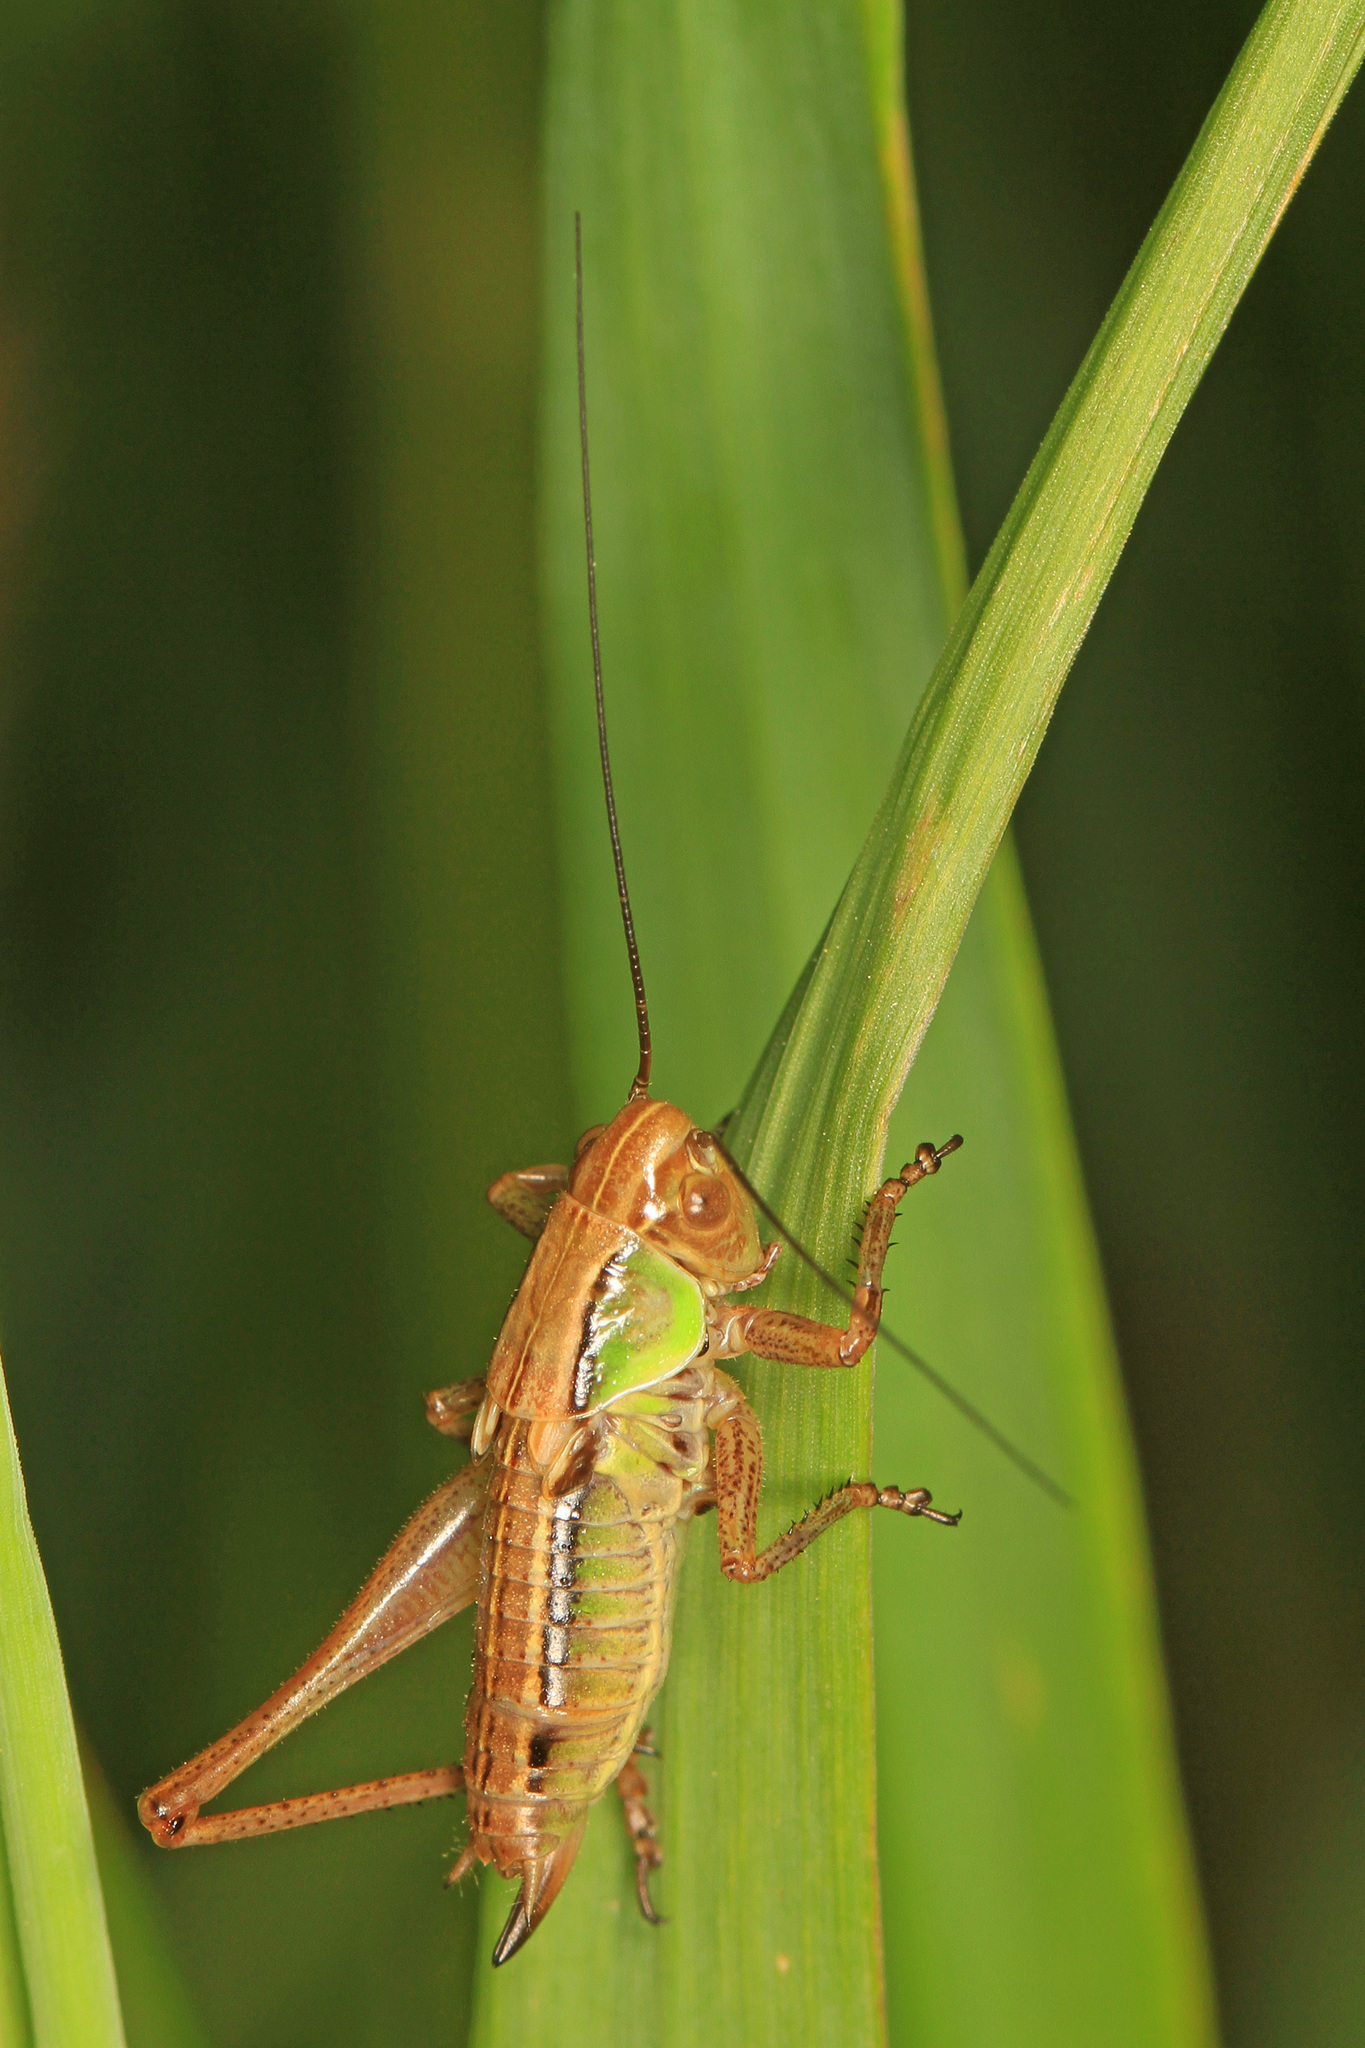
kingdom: Animalia
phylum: Arthropoda
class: Insecta
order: Orthoptera
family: Tettigoniidae
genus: Roeseliana
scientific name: Roeseliana roeselii
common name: Roesel's bush cricket
